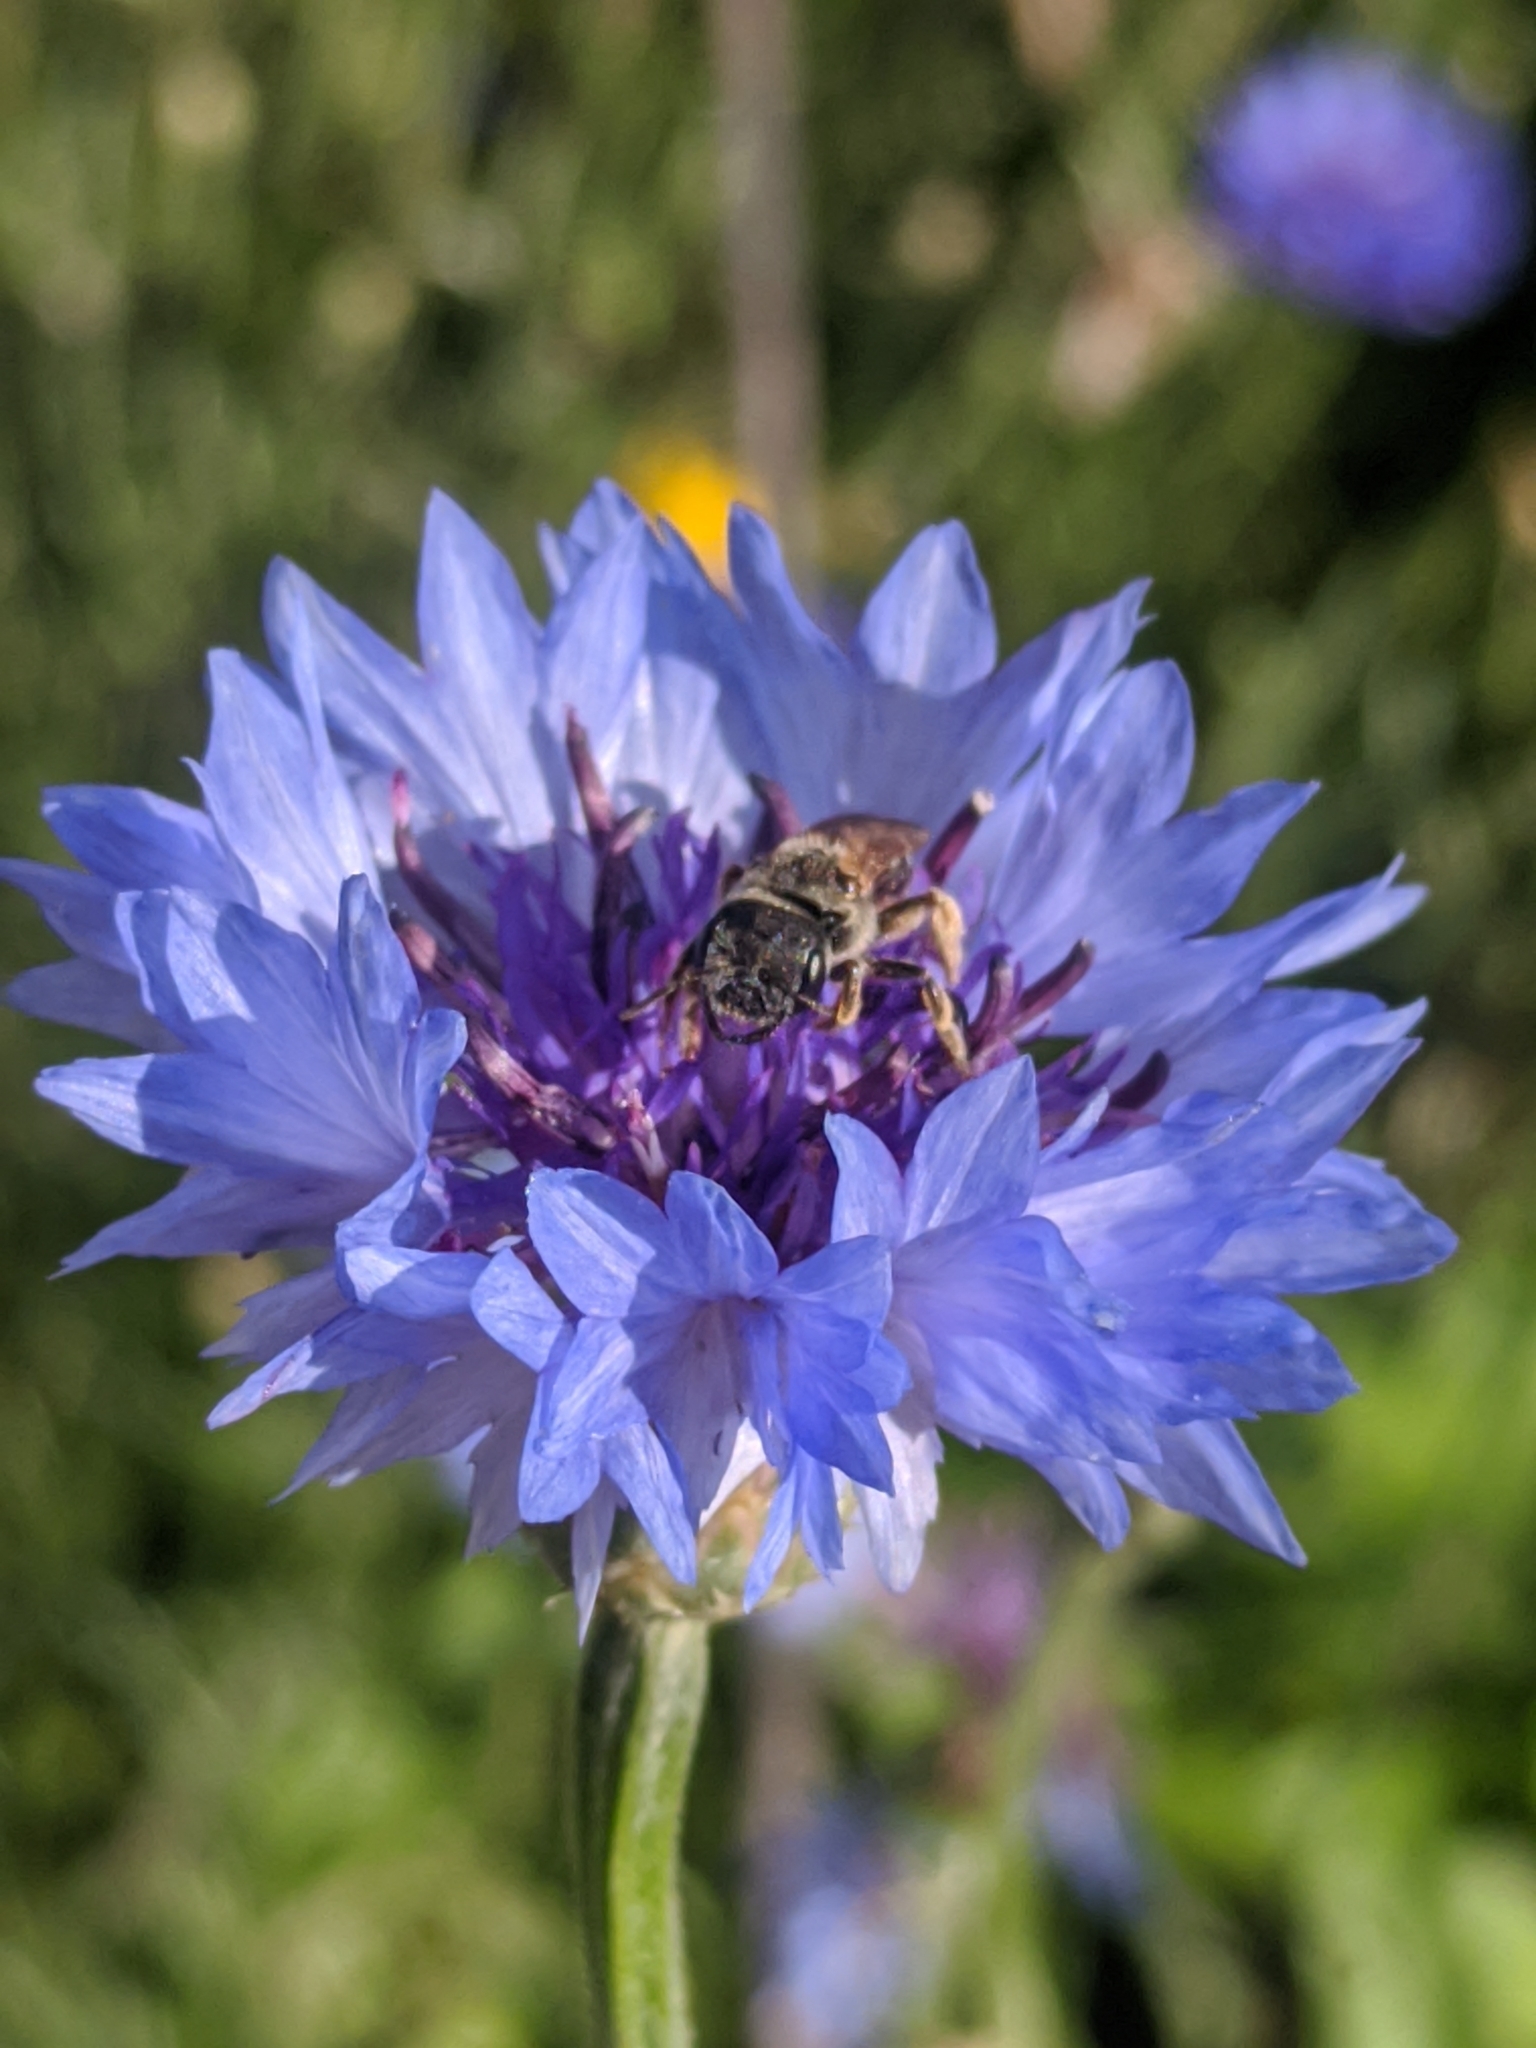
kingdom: Animalia
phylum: Arthropoda
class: Insecta
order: Hymenoptera
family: Halictidae
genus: Halictus
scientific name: Halictus ligatus
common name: Ligated furrow bee
